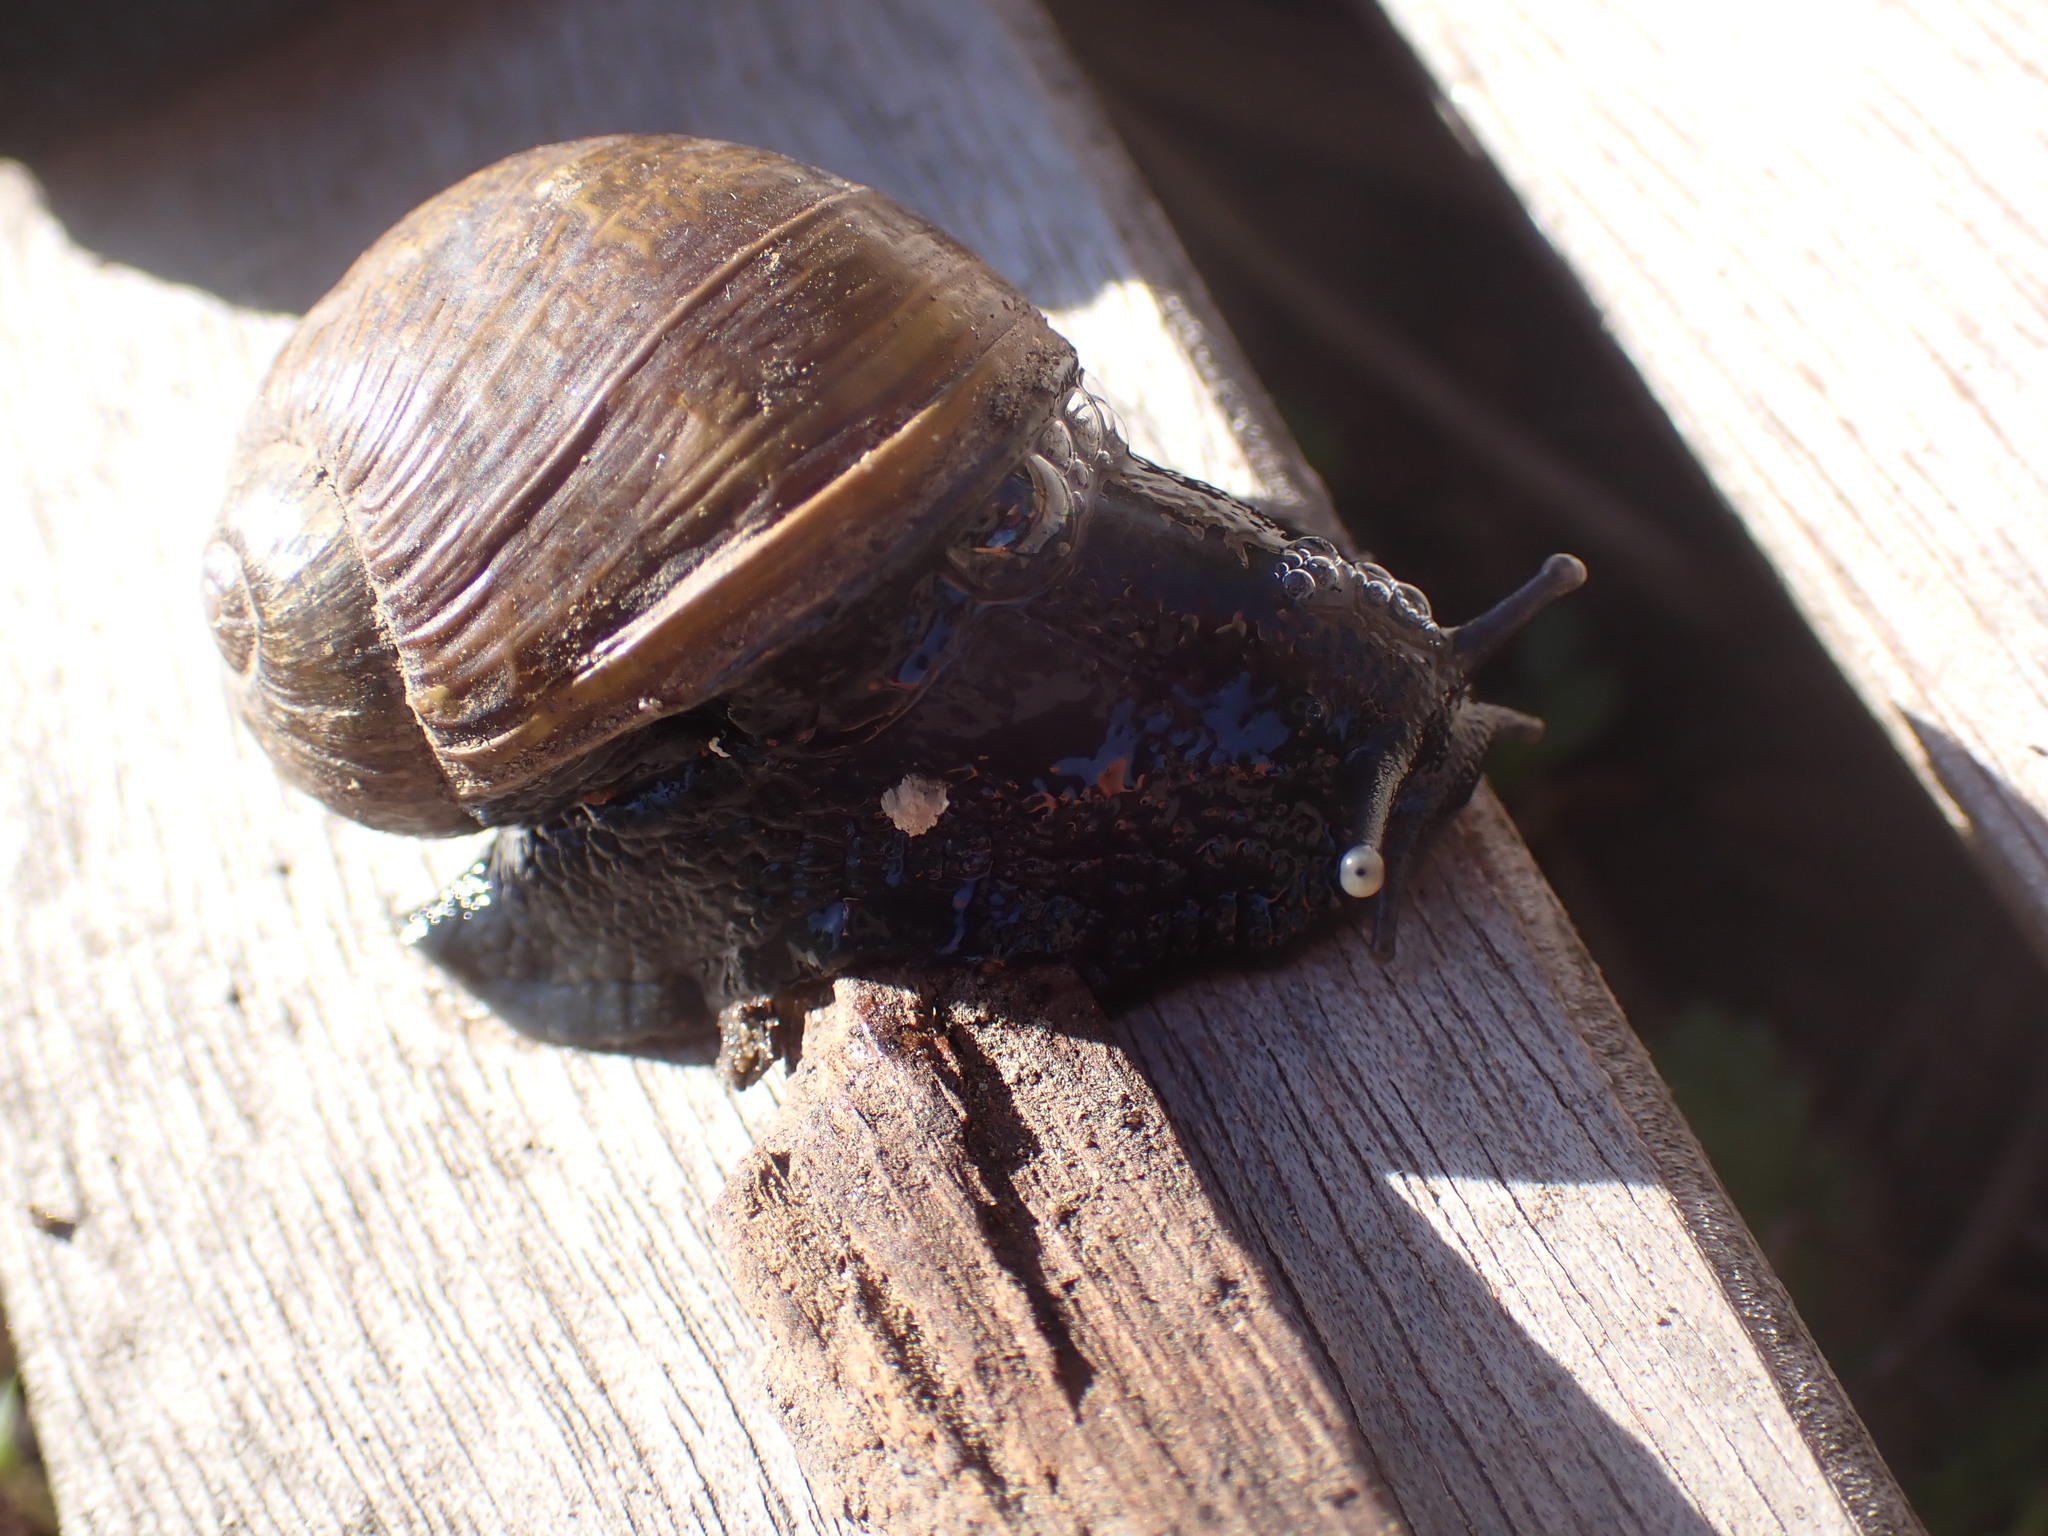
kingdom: Animalia
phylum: Mollusca
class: Gastropoda
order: Stylommatophora
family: Helicidae
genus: Cantareus
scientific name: Cantareus apertus
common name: Green gardensnail
